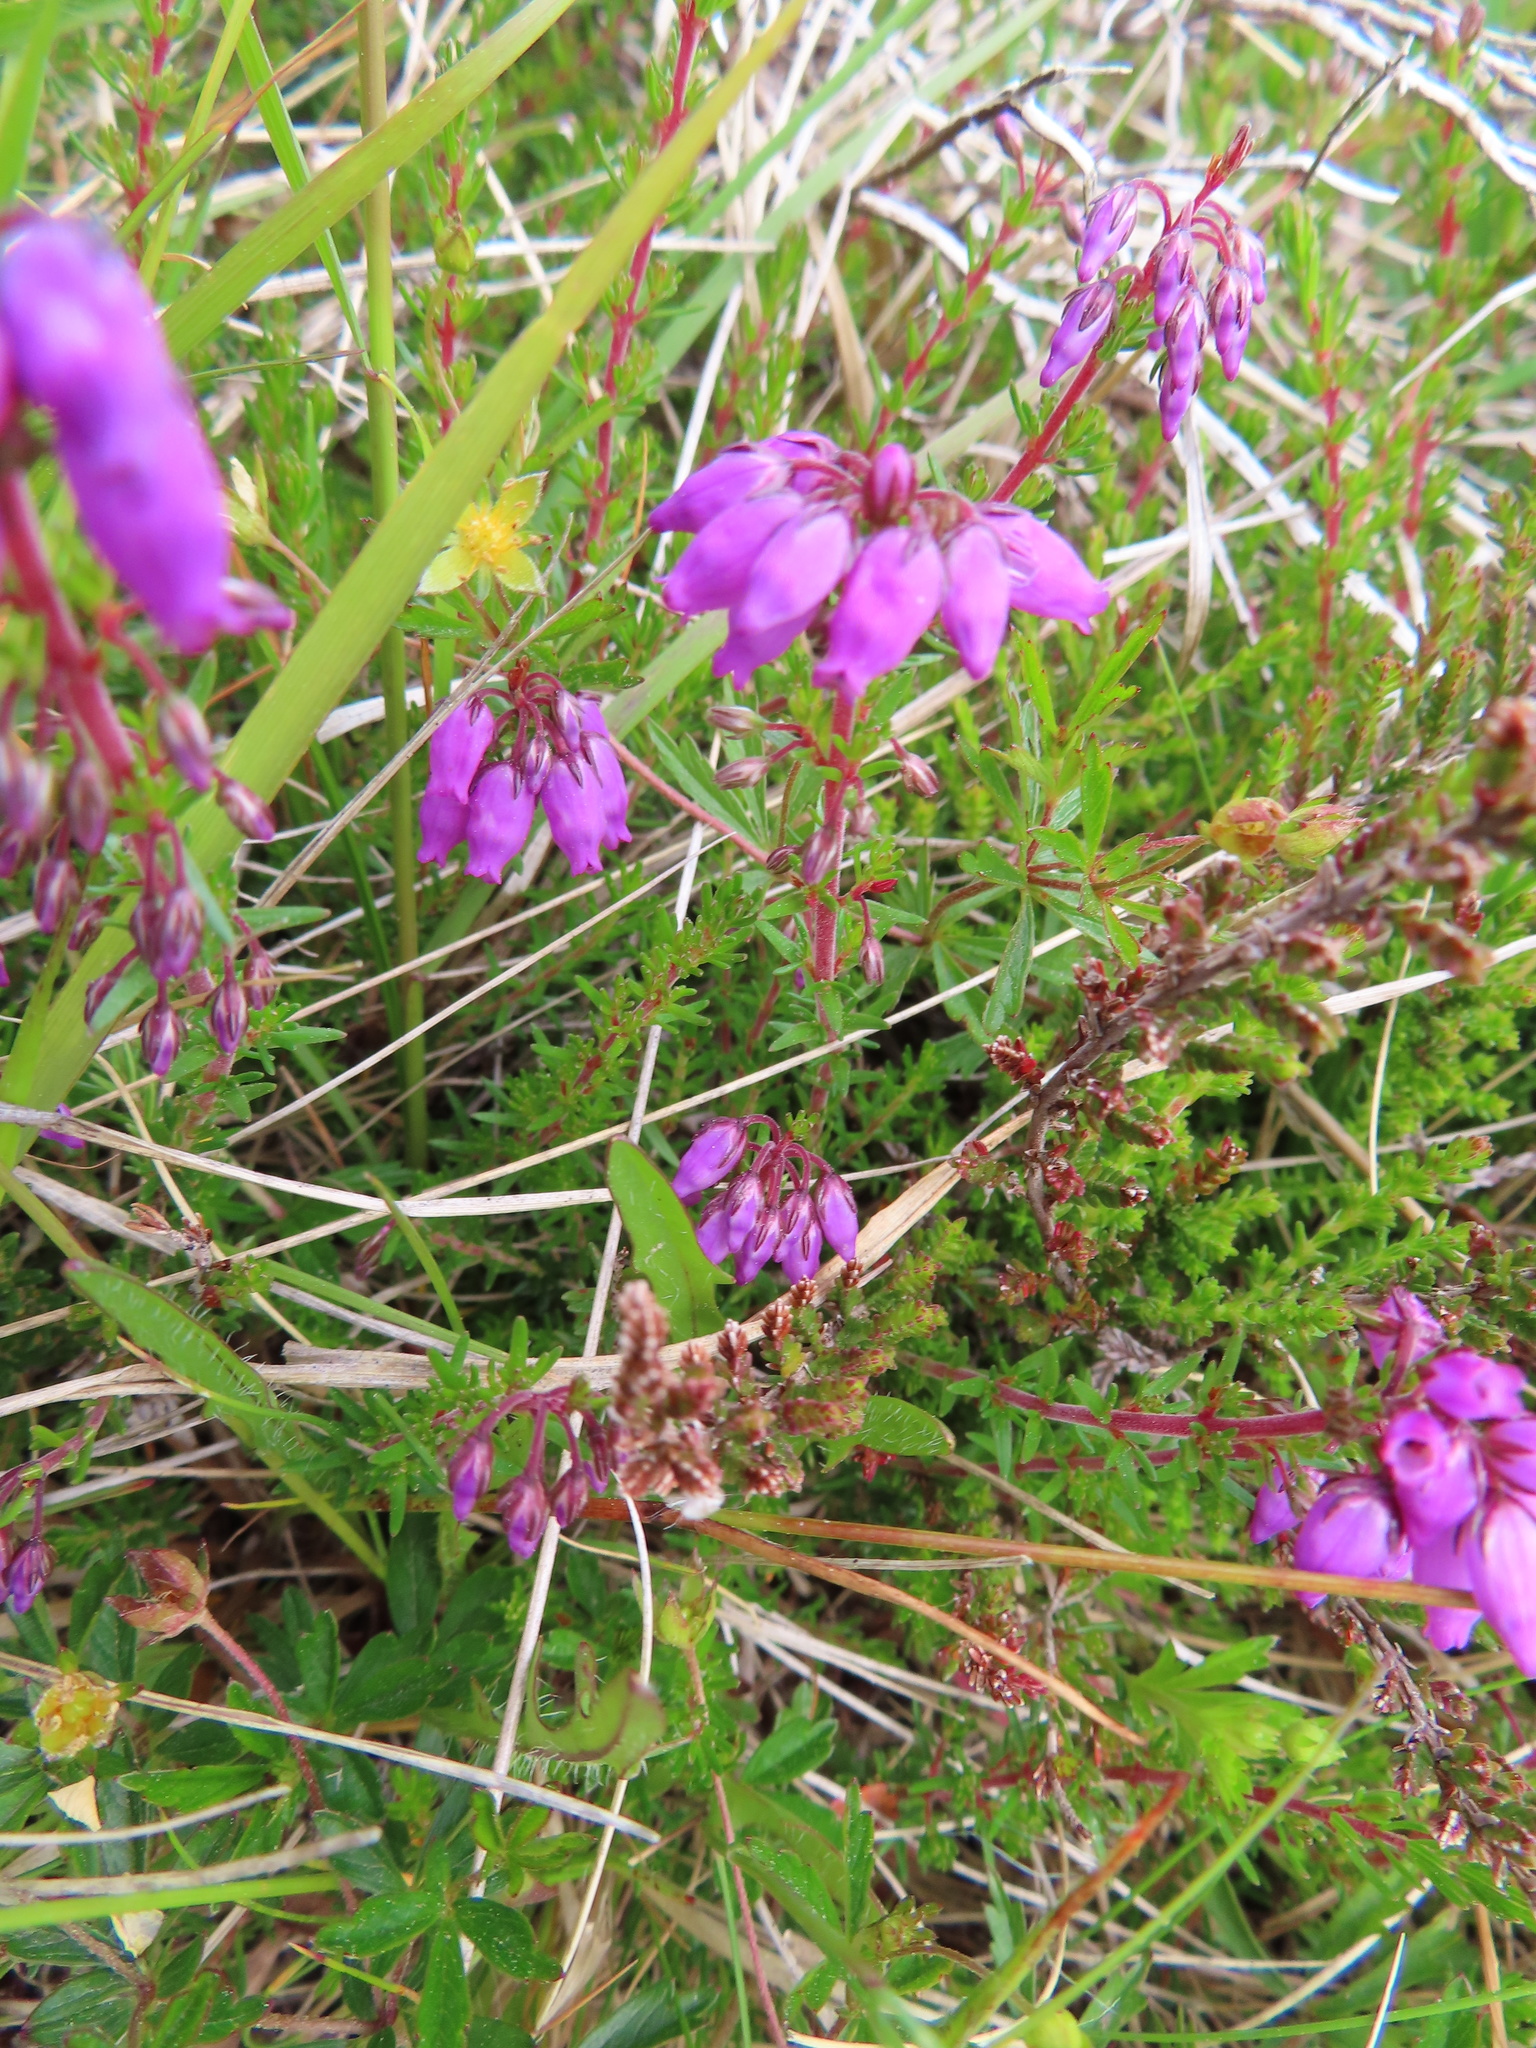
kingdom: Plantae
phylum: Tracheophyta
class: Magnoliopsida
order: Ericales
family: Ericaceae
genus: Erica
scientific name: Erica cinerea
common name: Bell heather
